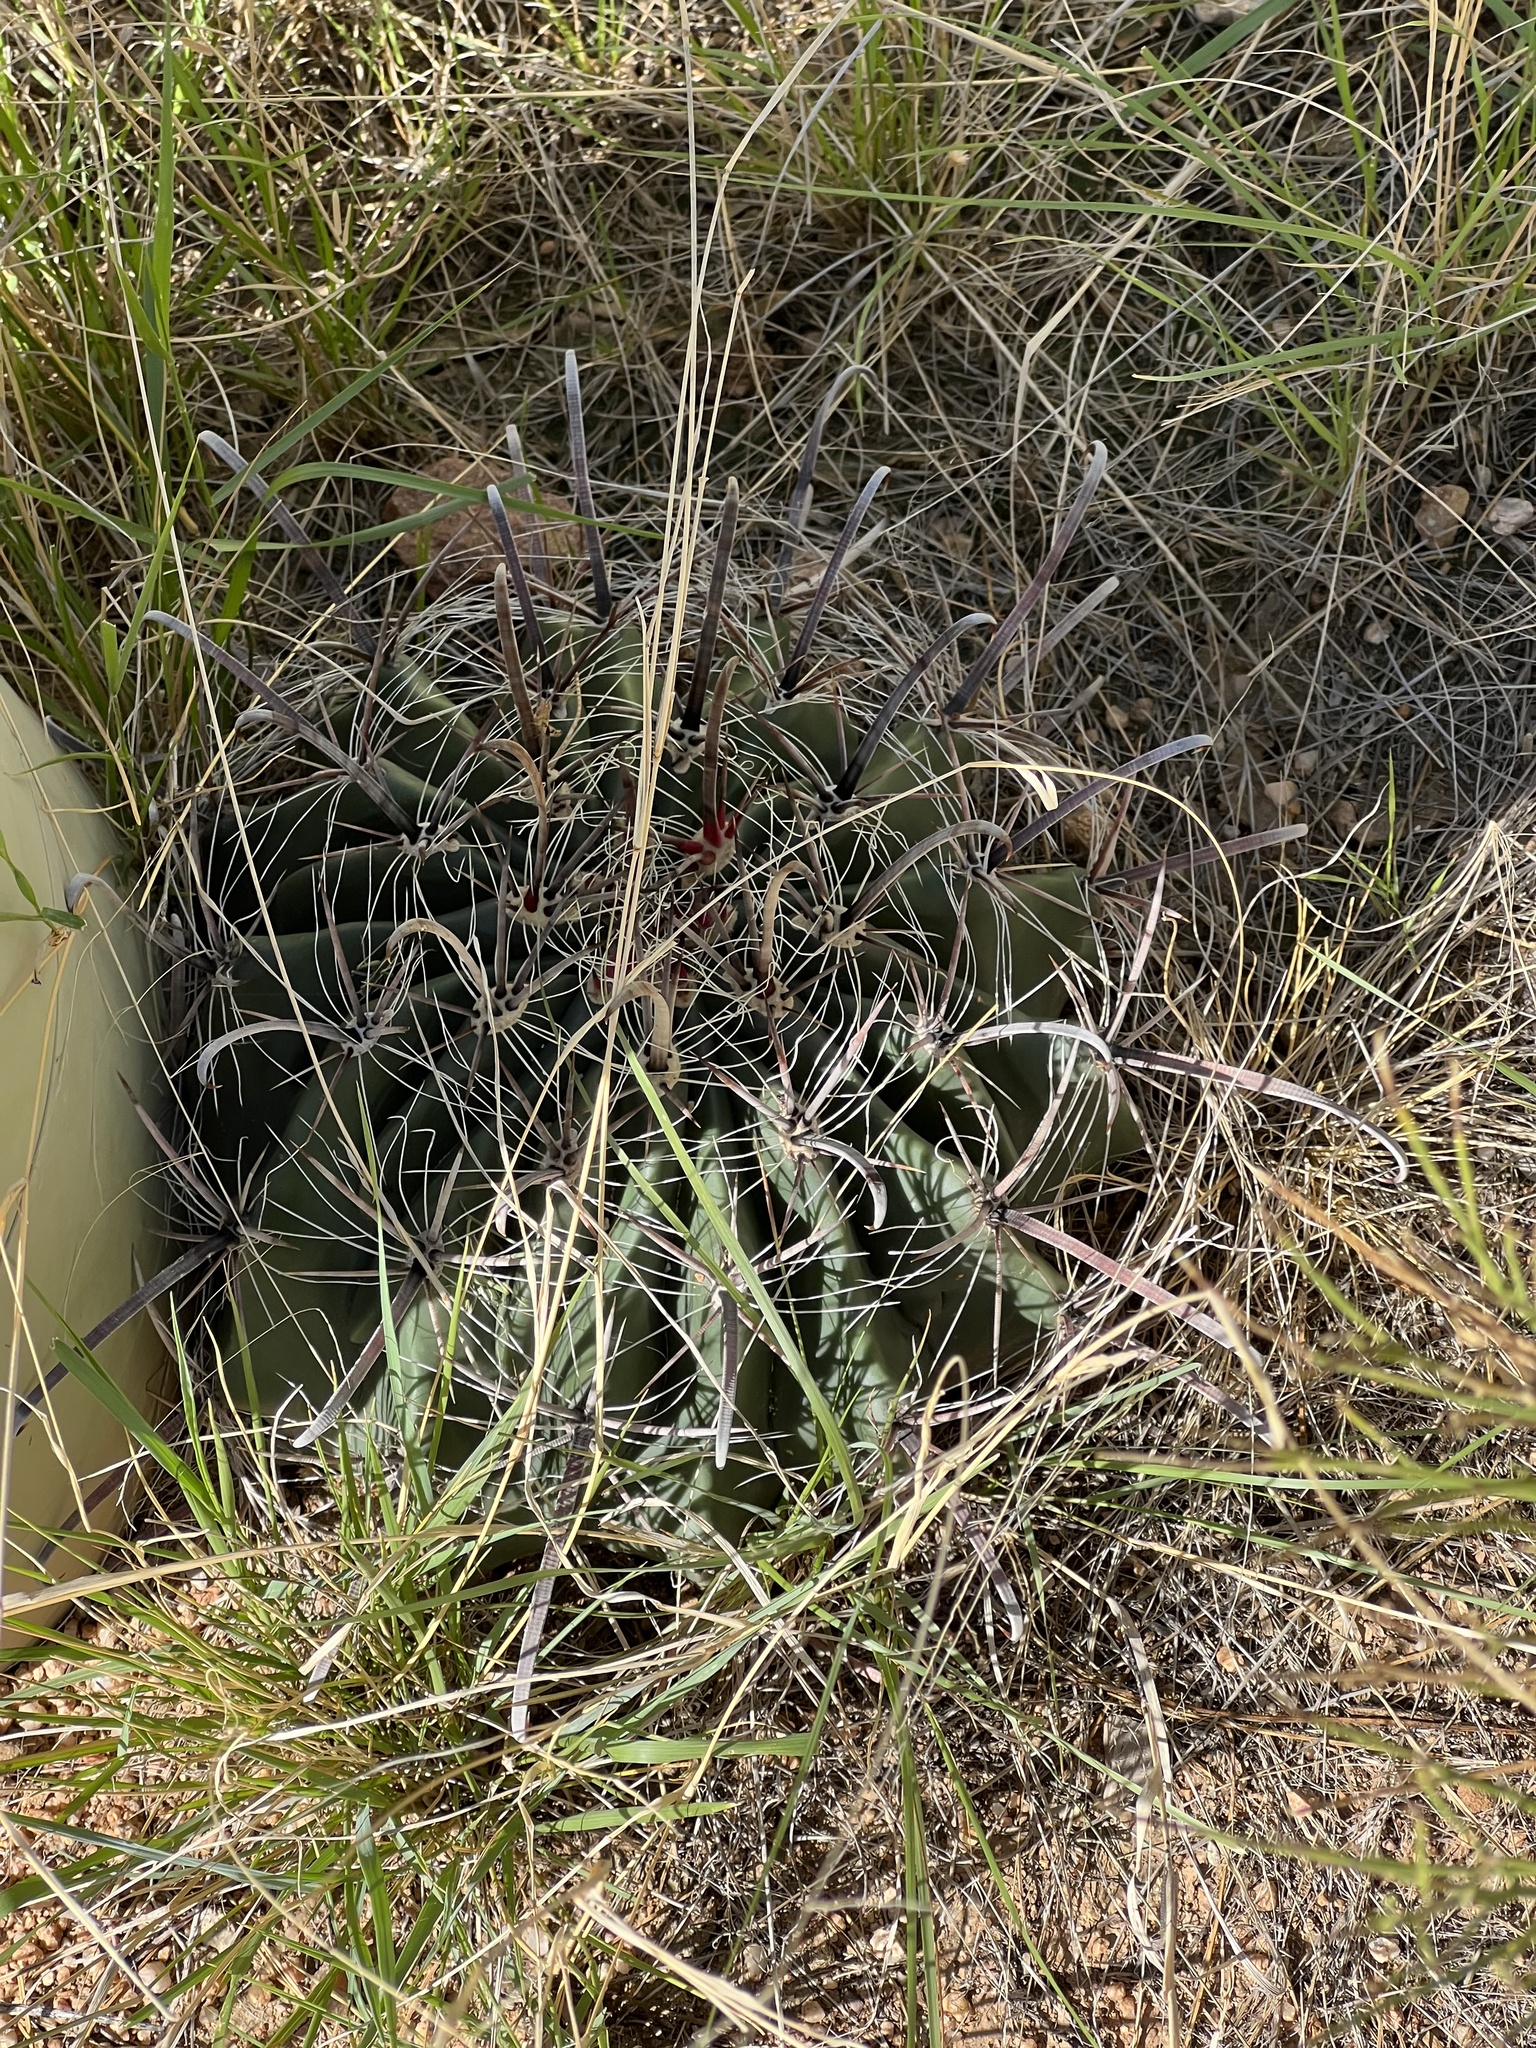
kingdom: Plantae
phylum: Tracheophyta
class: Magnoliopsida
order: Caryophyllales
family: Cactaceae
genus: Ferocactus
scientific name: Ferocactus wislizeni
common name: Candy barrel cactus
